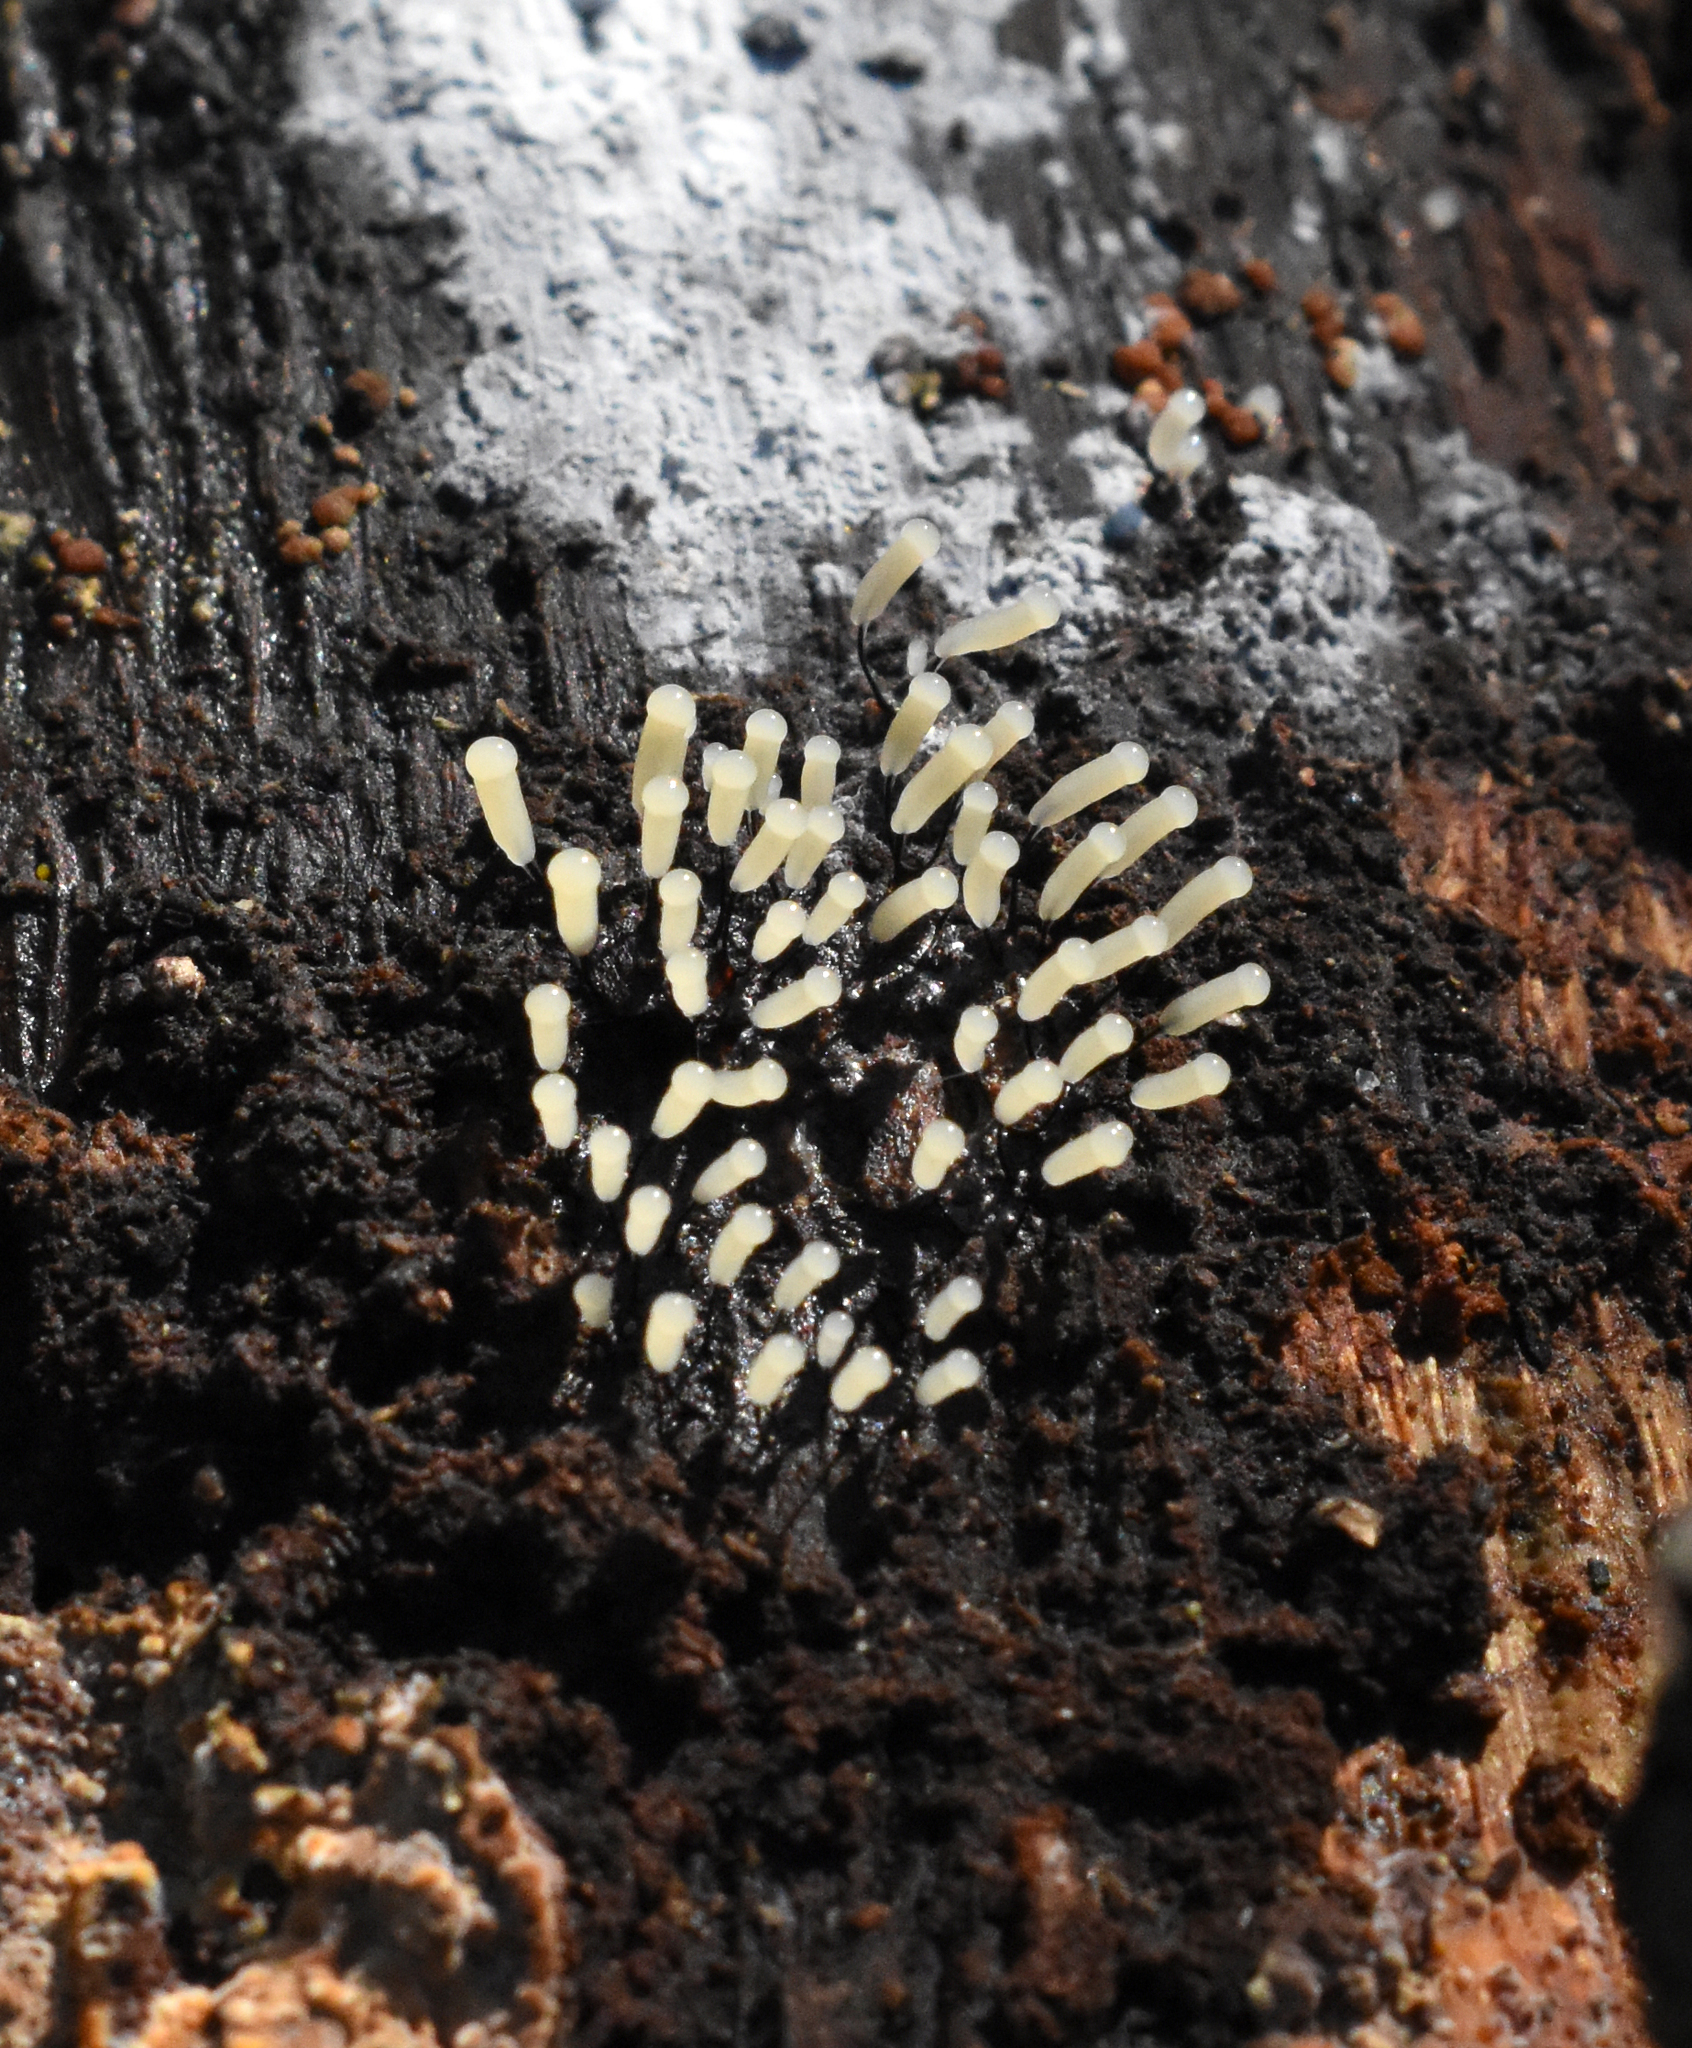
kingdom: Protozoa
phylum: Mycetozoa
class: Myxomycetes
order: Stemonitidales
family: Stemonitidaceae
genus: Comatricha
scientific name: Comatricha alta
